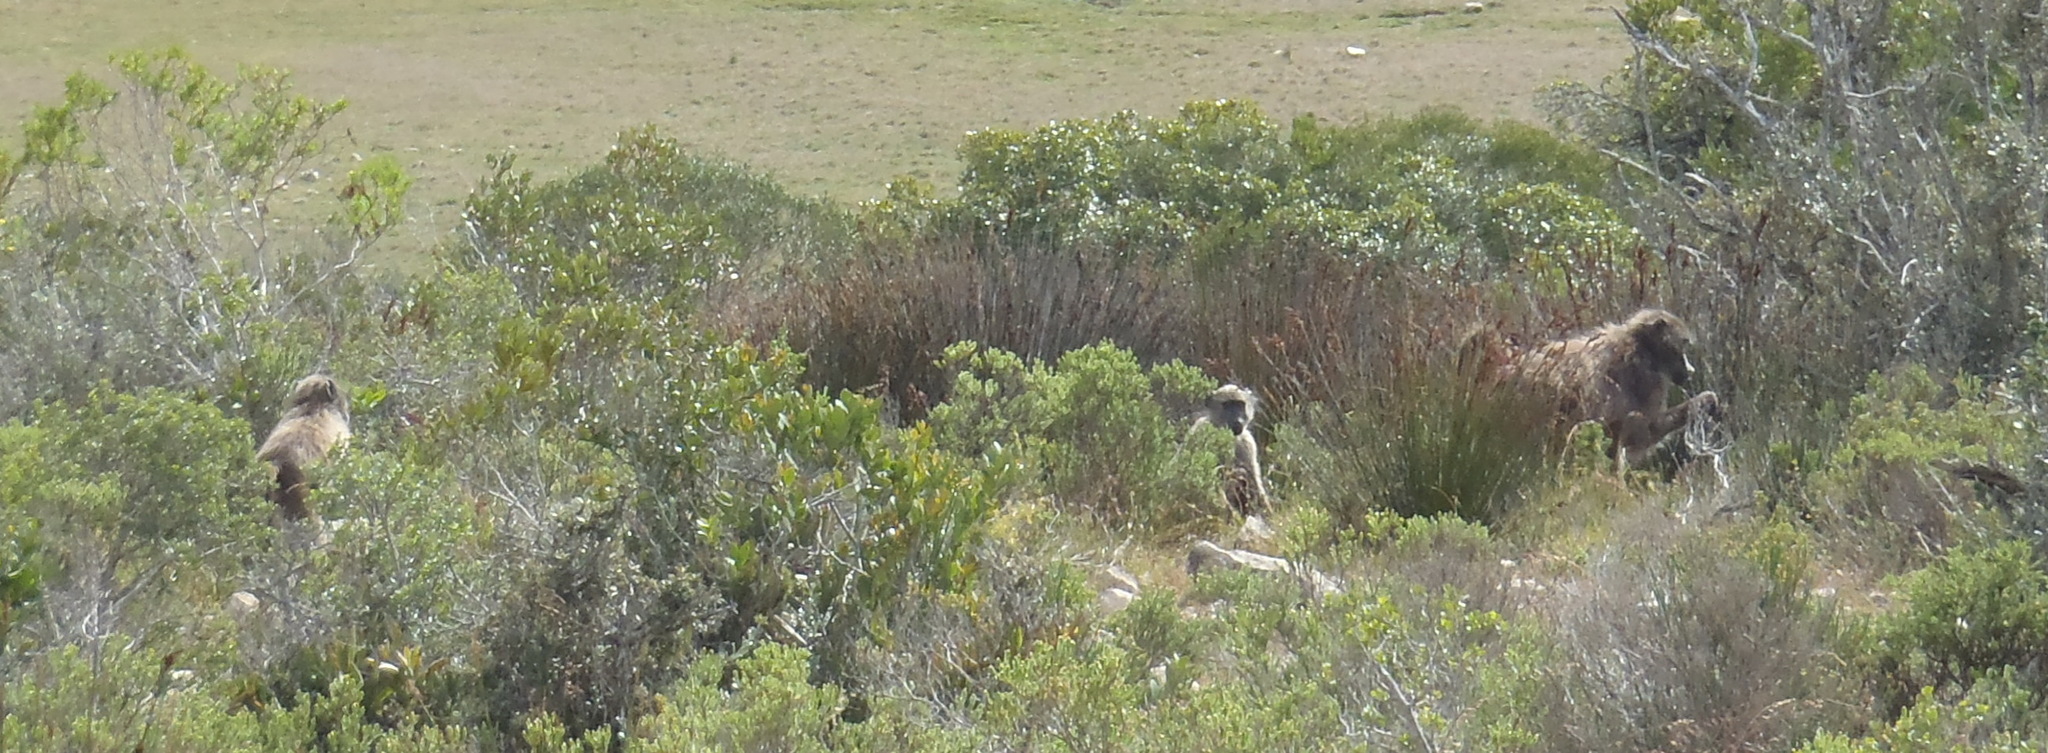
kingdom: Animalia
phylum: Chordata
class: Mammalia
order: Primates
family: Cercopithecidae
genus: Papio
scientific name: Papio ursinus
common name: Chacma baboon
